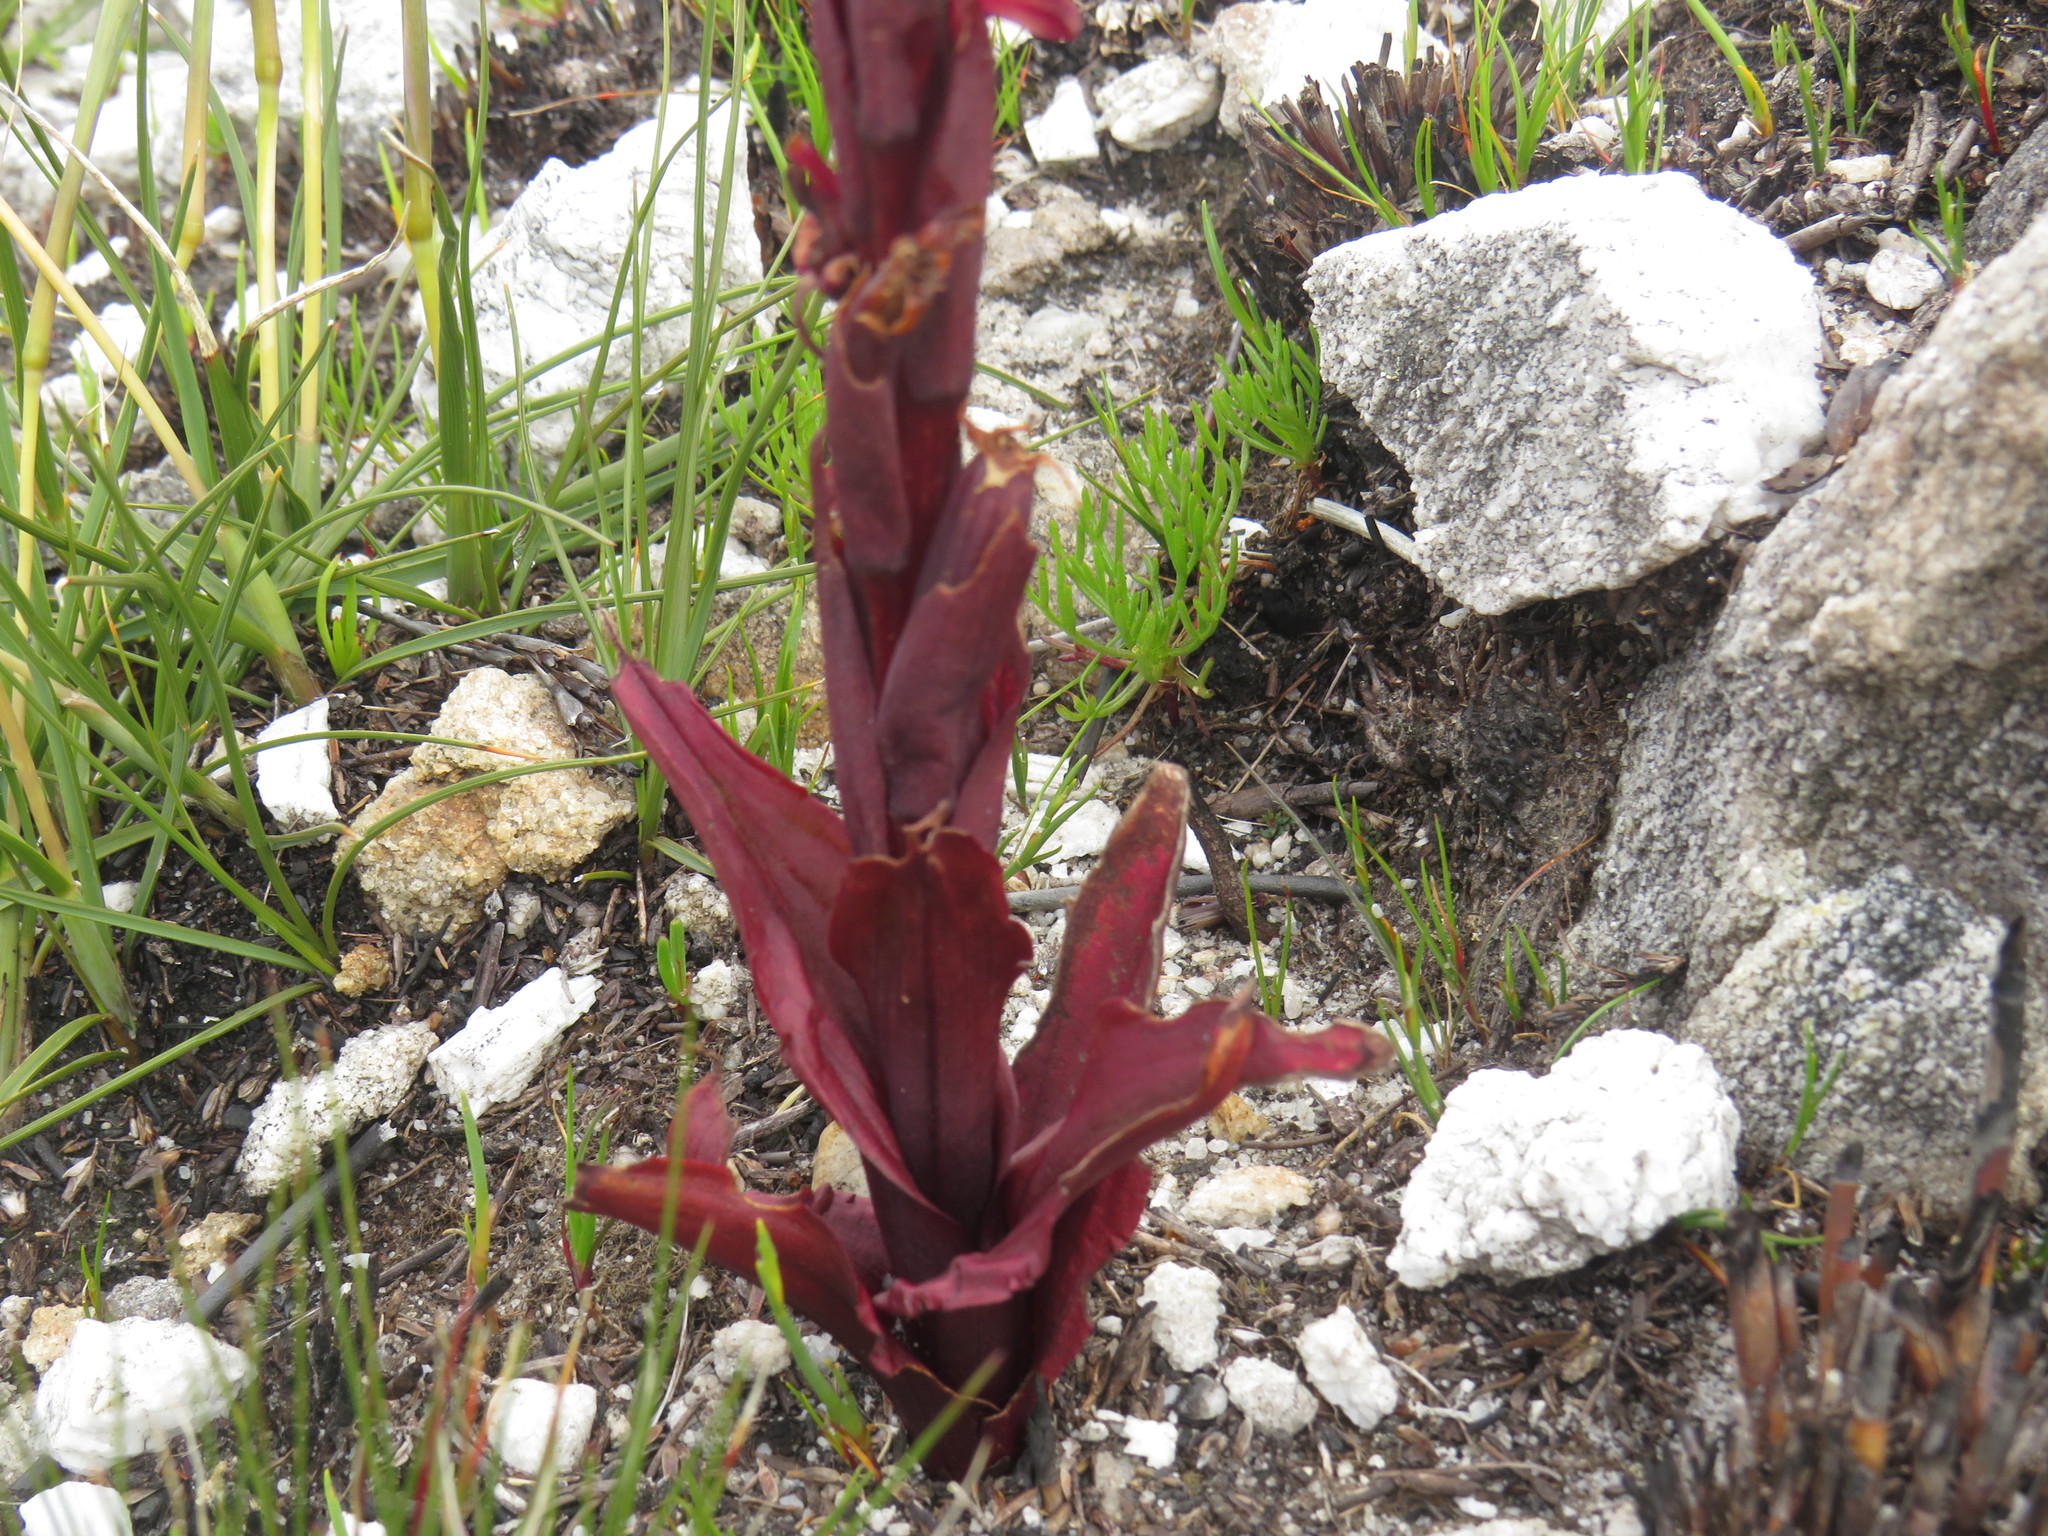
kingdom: Plantae
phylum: Tracheophyta
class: Liliopsida
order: Asparagales
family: Orchidaceae
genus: Disa
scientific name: Disa ophrydea
